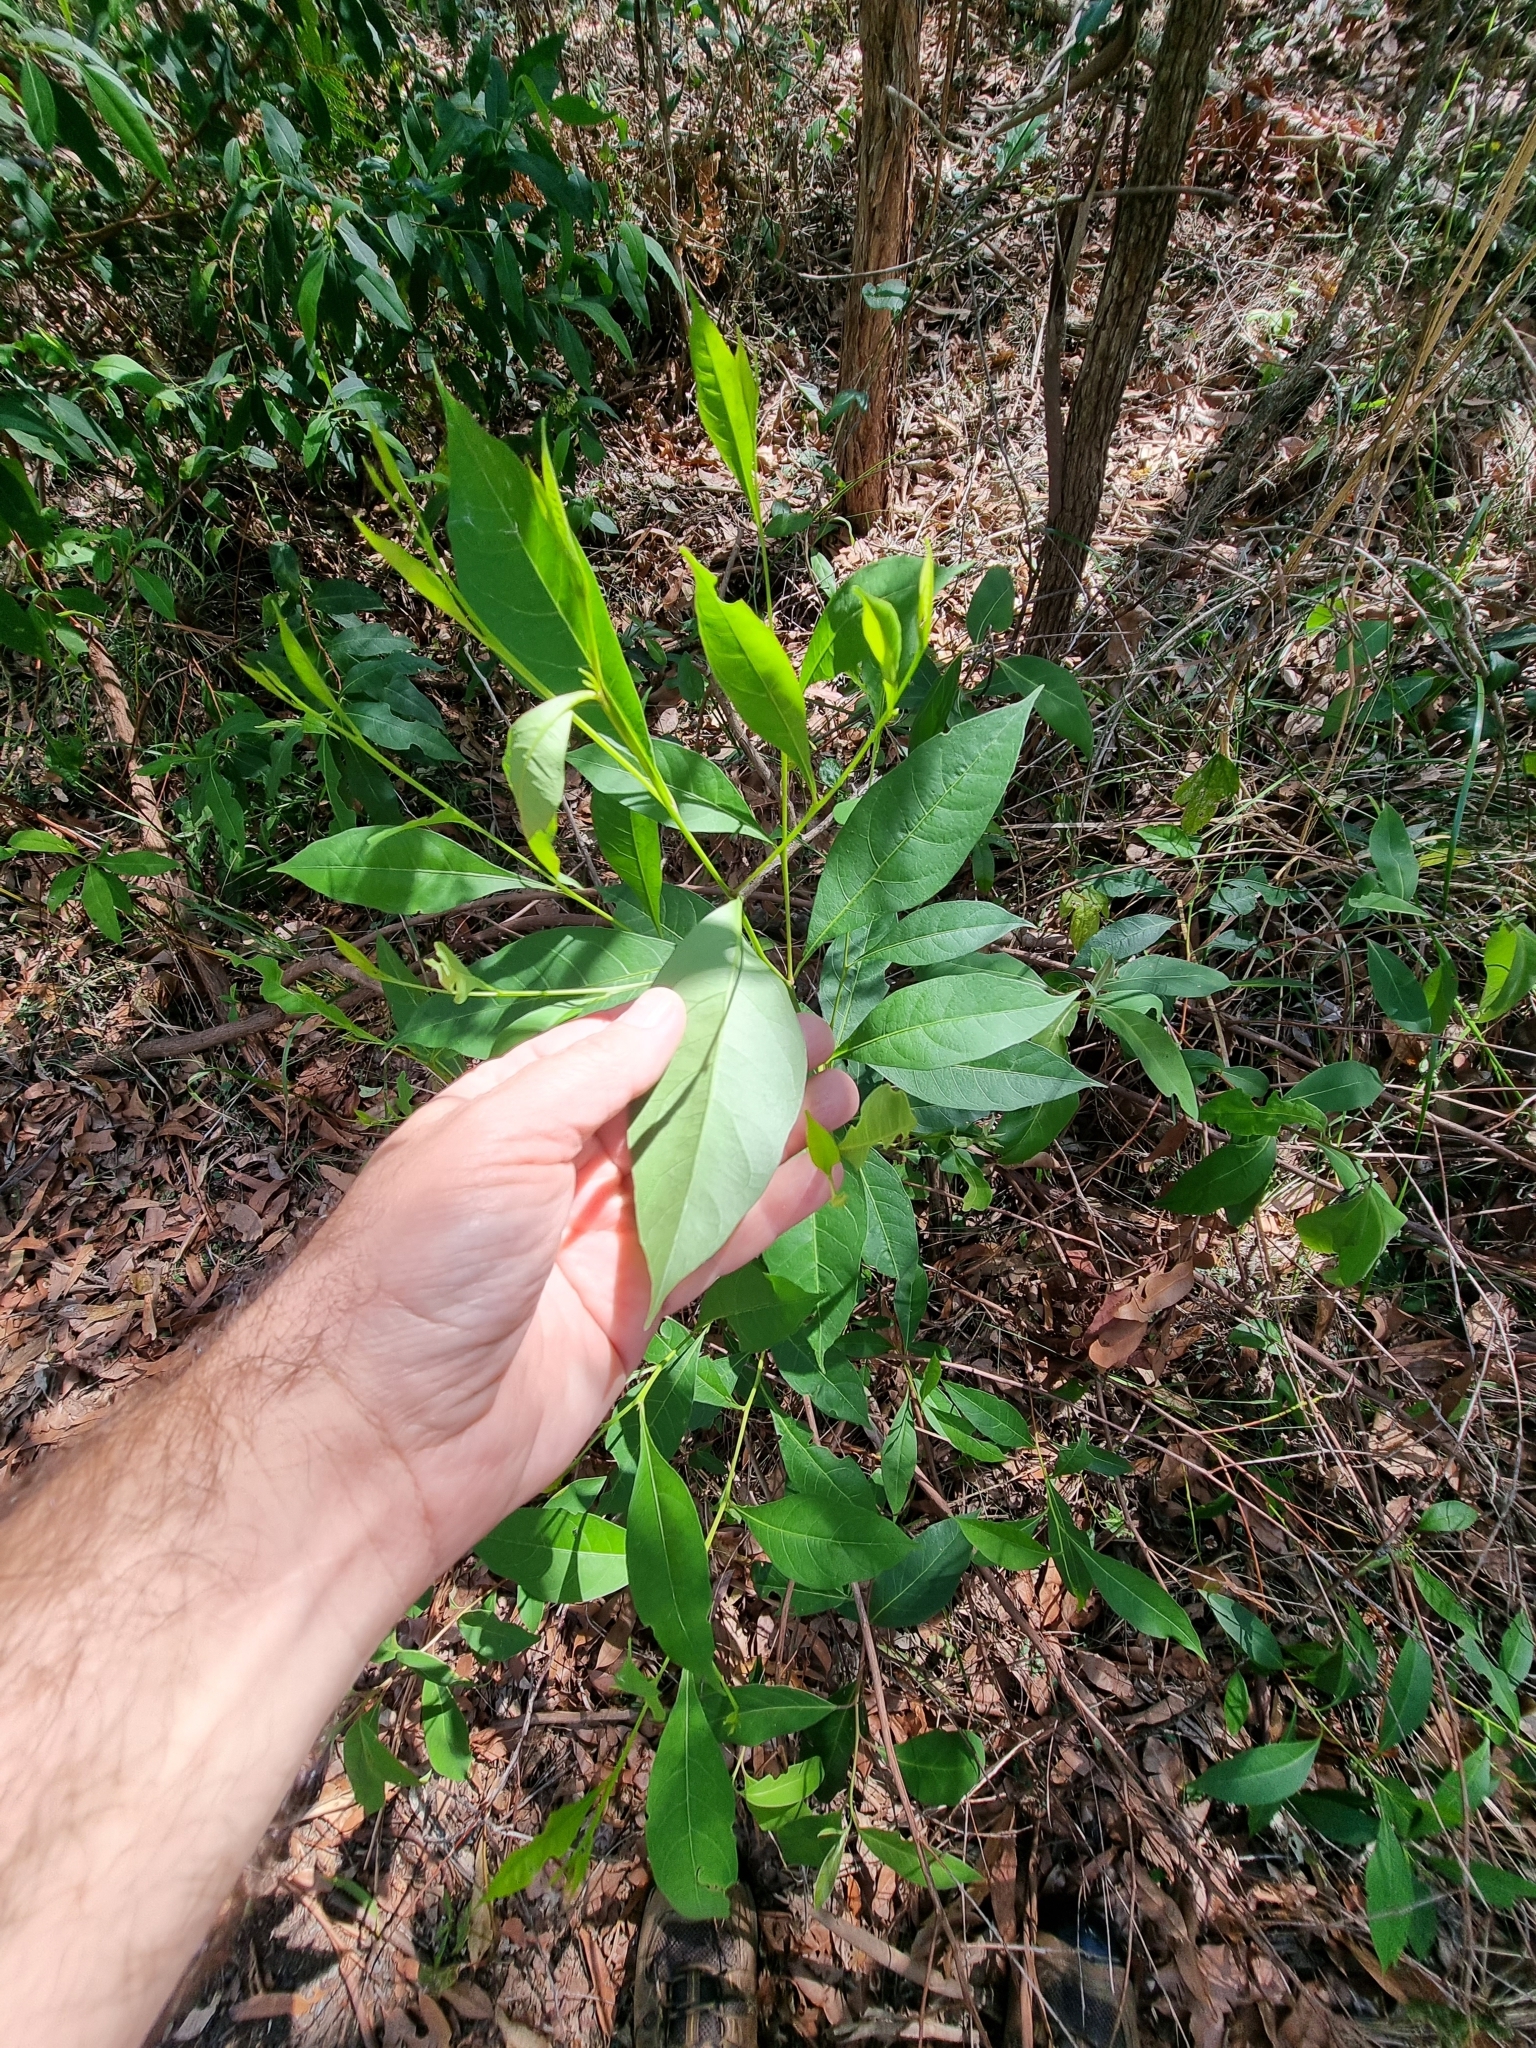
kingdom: Plantae
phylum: Tracheophyta
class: Magnoliopsida
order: Sapindales
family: Sapindaceae
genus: Dodonaea
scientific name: Dodonaea triquetra
